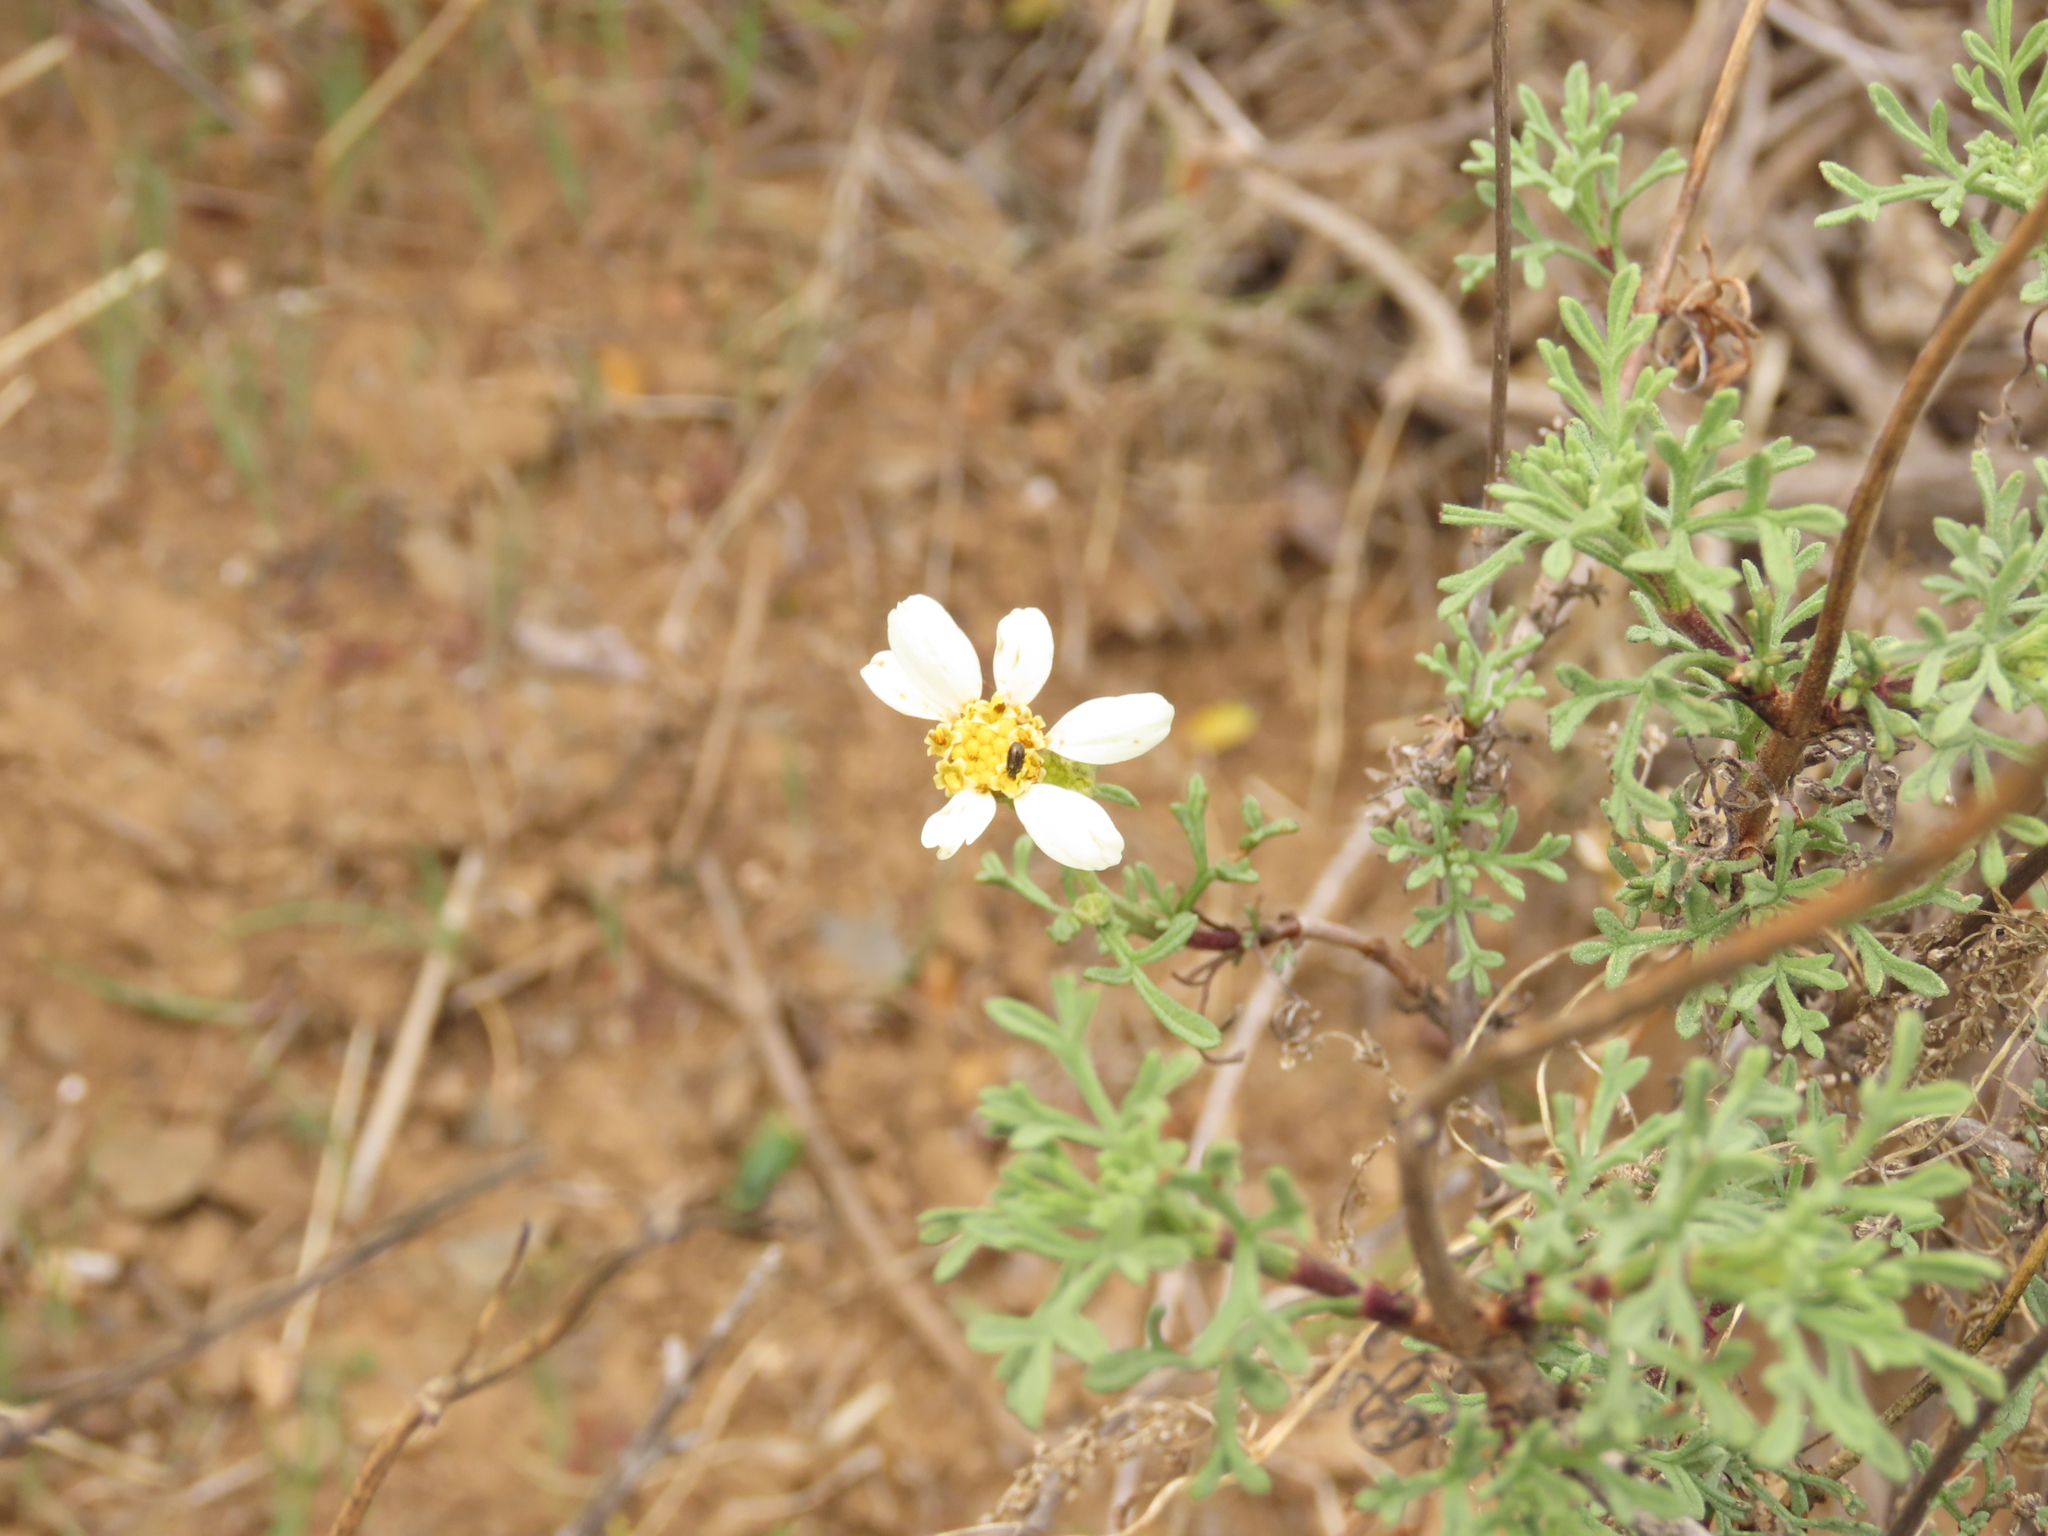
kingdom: Plantae
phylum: Tracheophyta
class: Magnoliopsida
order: Asterales
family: Asteraceae
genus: Bahia
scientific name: Bahia ambrosioides
